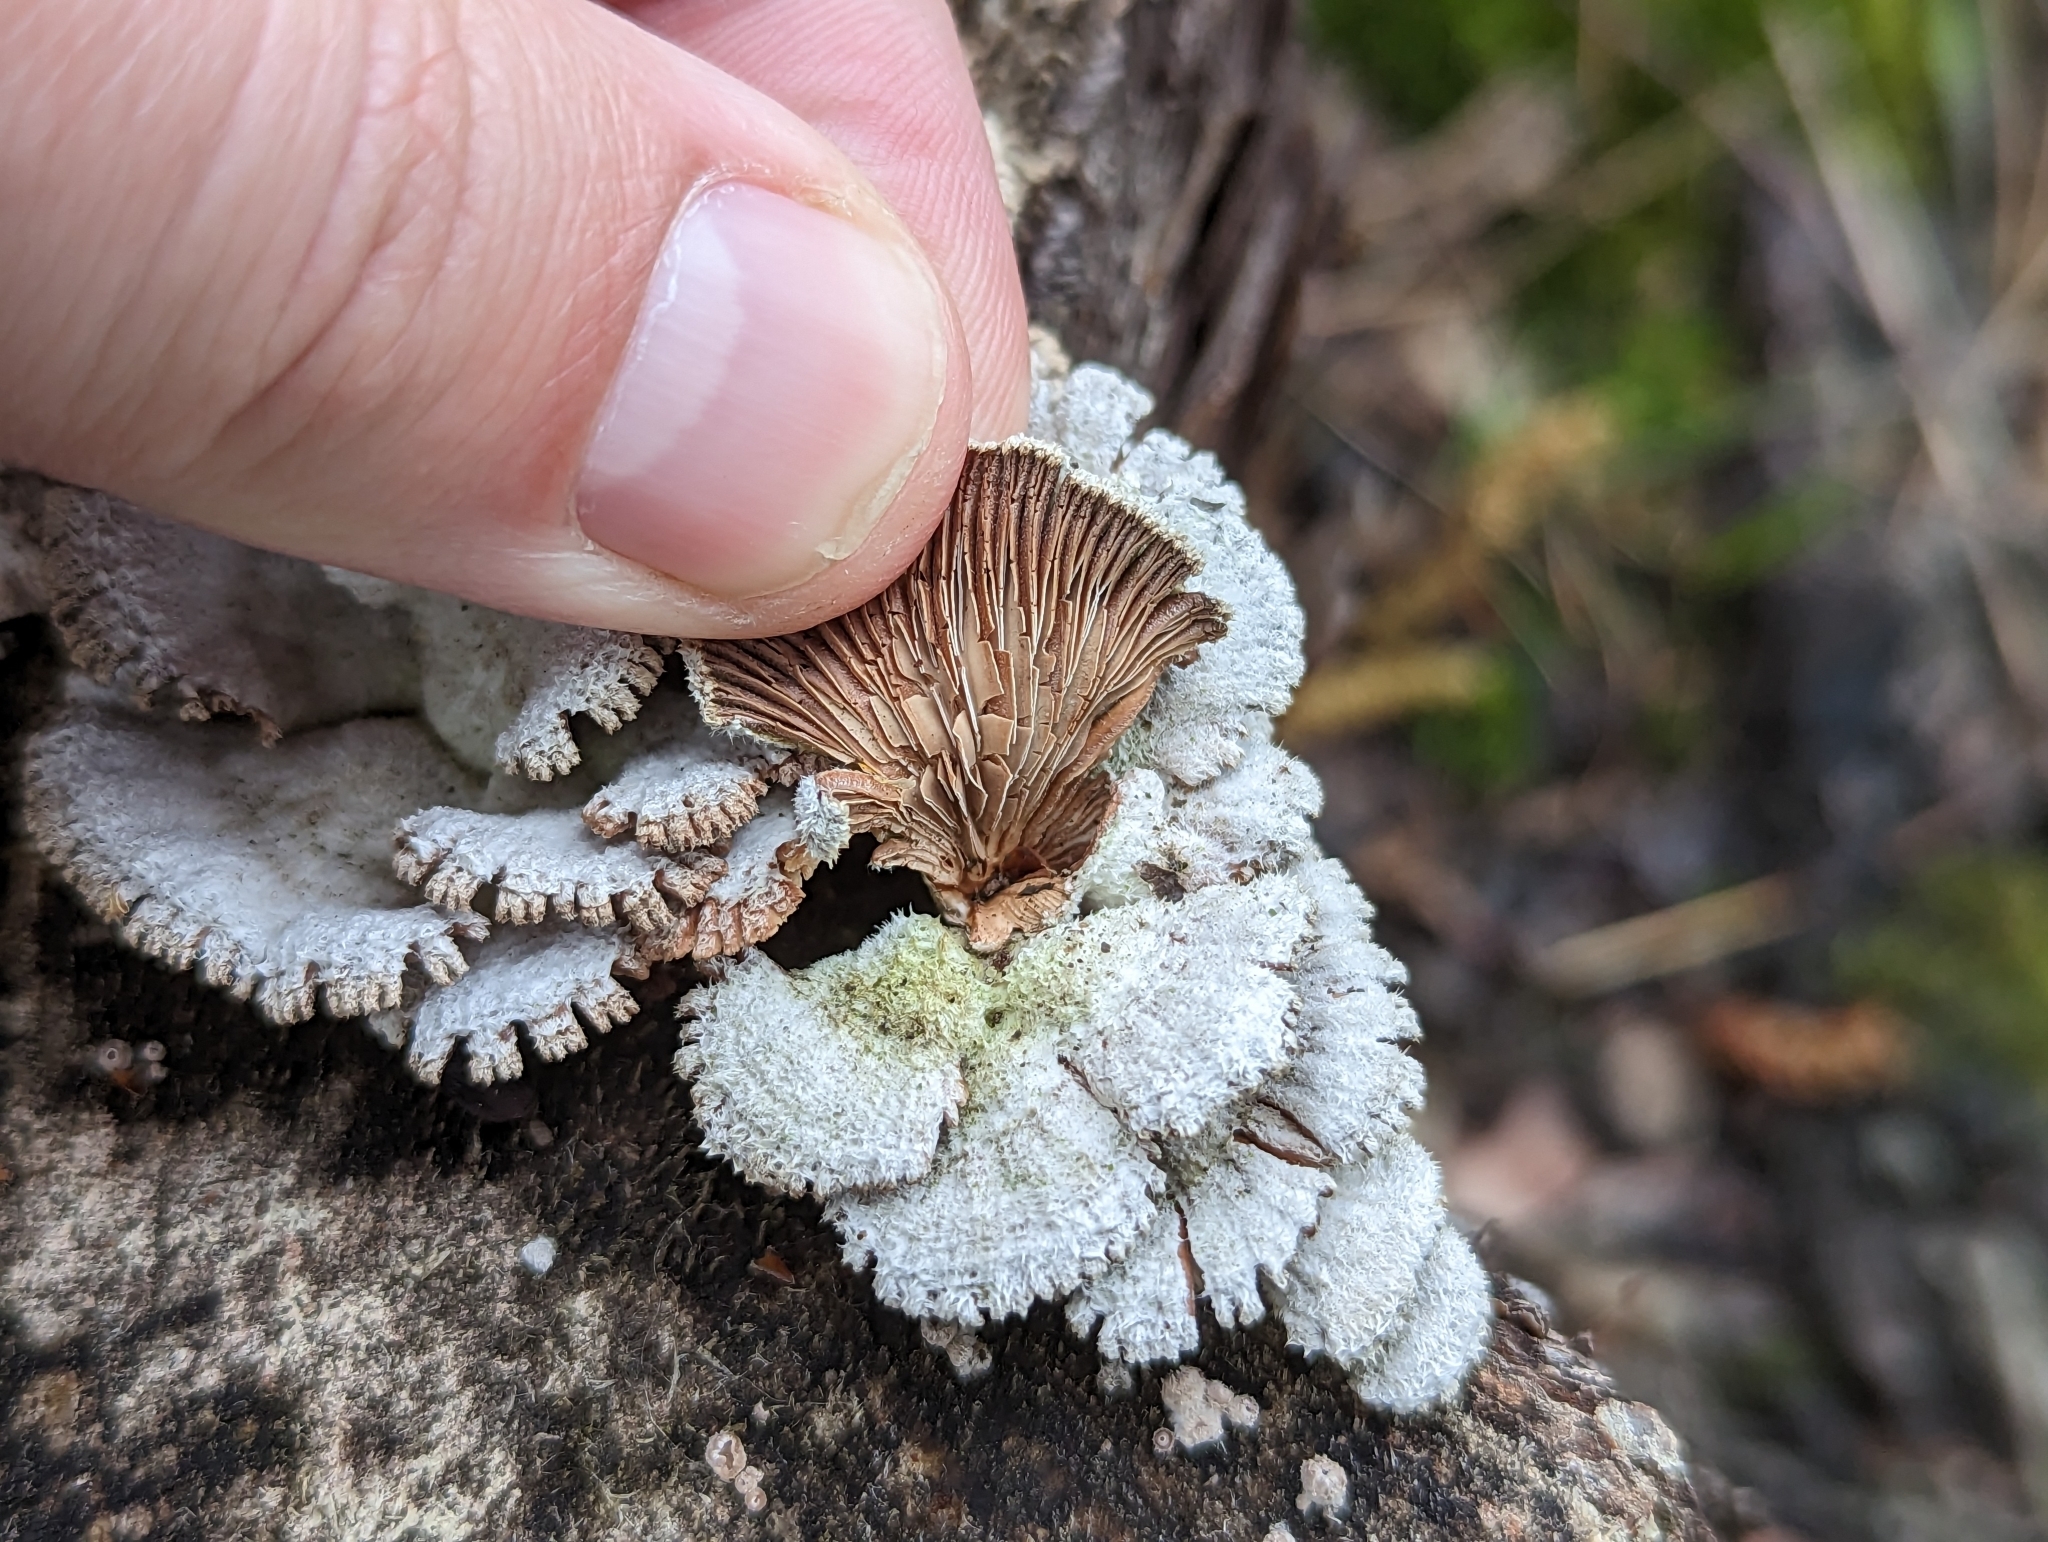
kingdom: Fungi
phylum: Basidiomycota
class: Agaricomycetes
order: Agaricales
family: Schizophyllaceae
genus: Schizophyllum
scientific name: Schizophyllum commune
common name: Common porecrust
